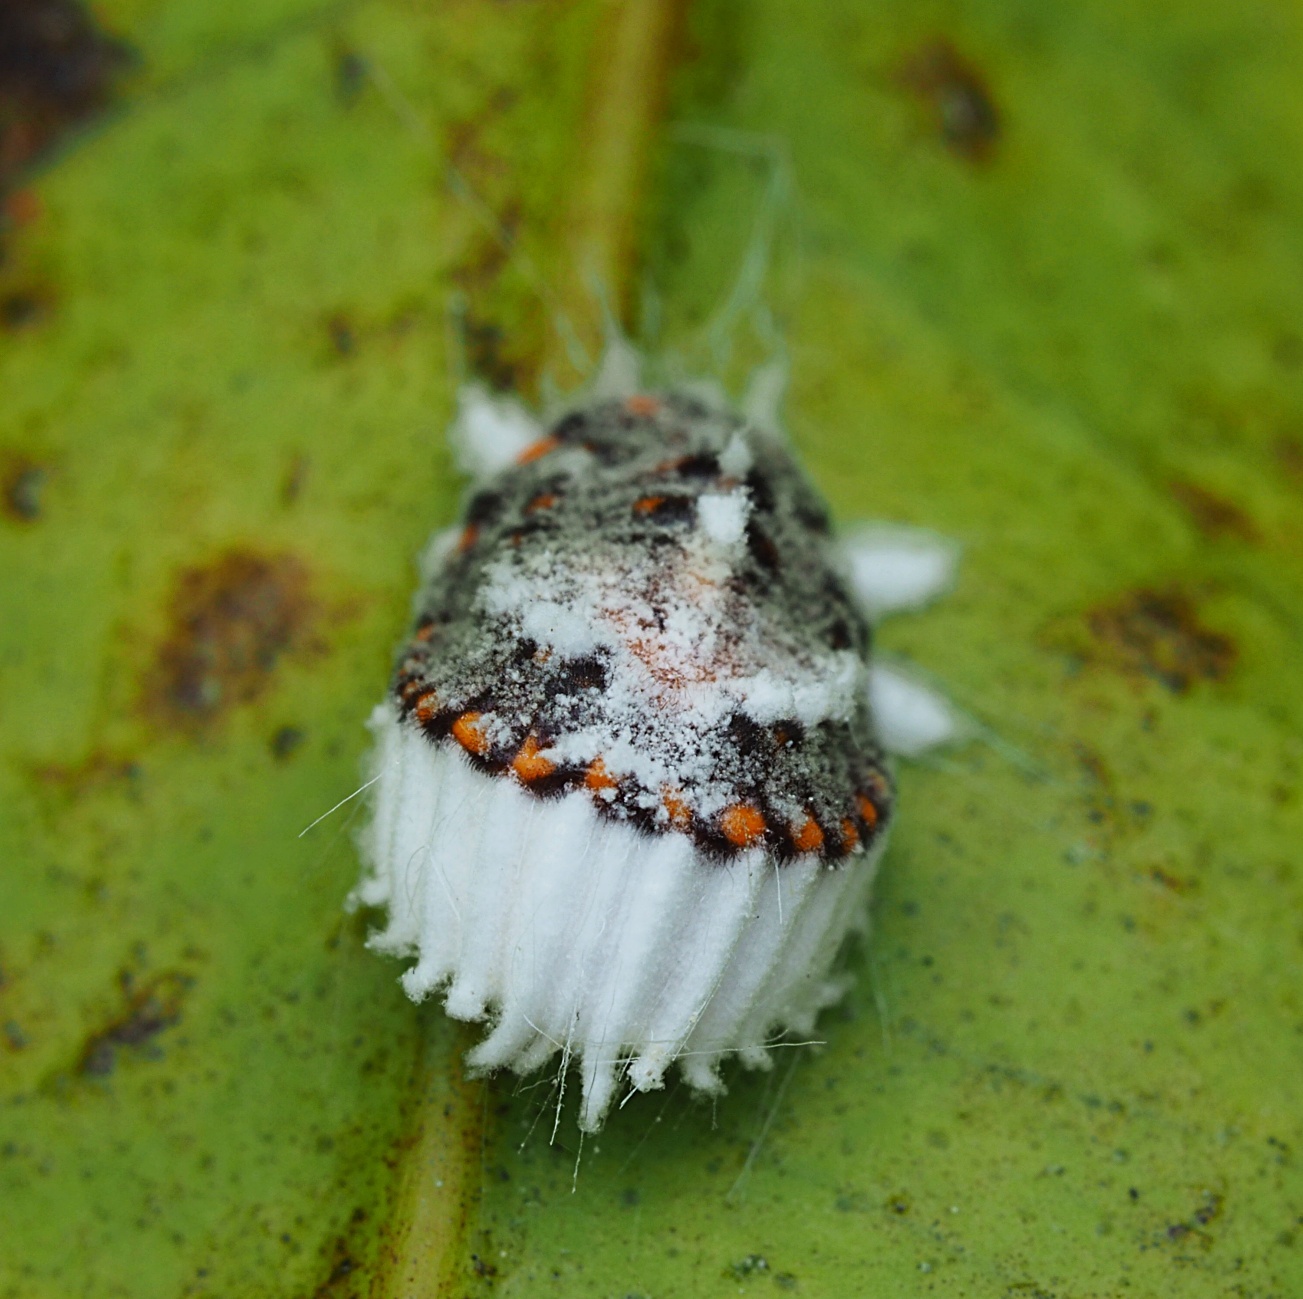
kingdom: Animalia
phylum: Arthropoda
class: Insecta
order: Hemiptera
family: Margarodidae
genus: Icerya
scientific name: Icerya purchasi
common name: Cottony cushion scale
